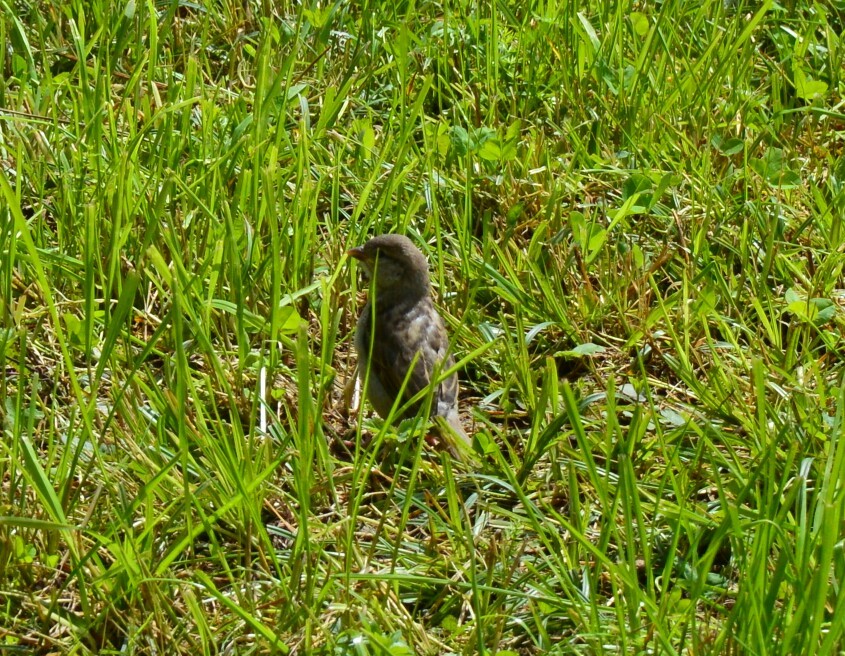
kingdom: Animalia
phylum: Chordata
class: Aves
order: Passeriformes
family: Passeridae
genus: Passer
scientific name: Passer domesticus
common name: House sparrow
